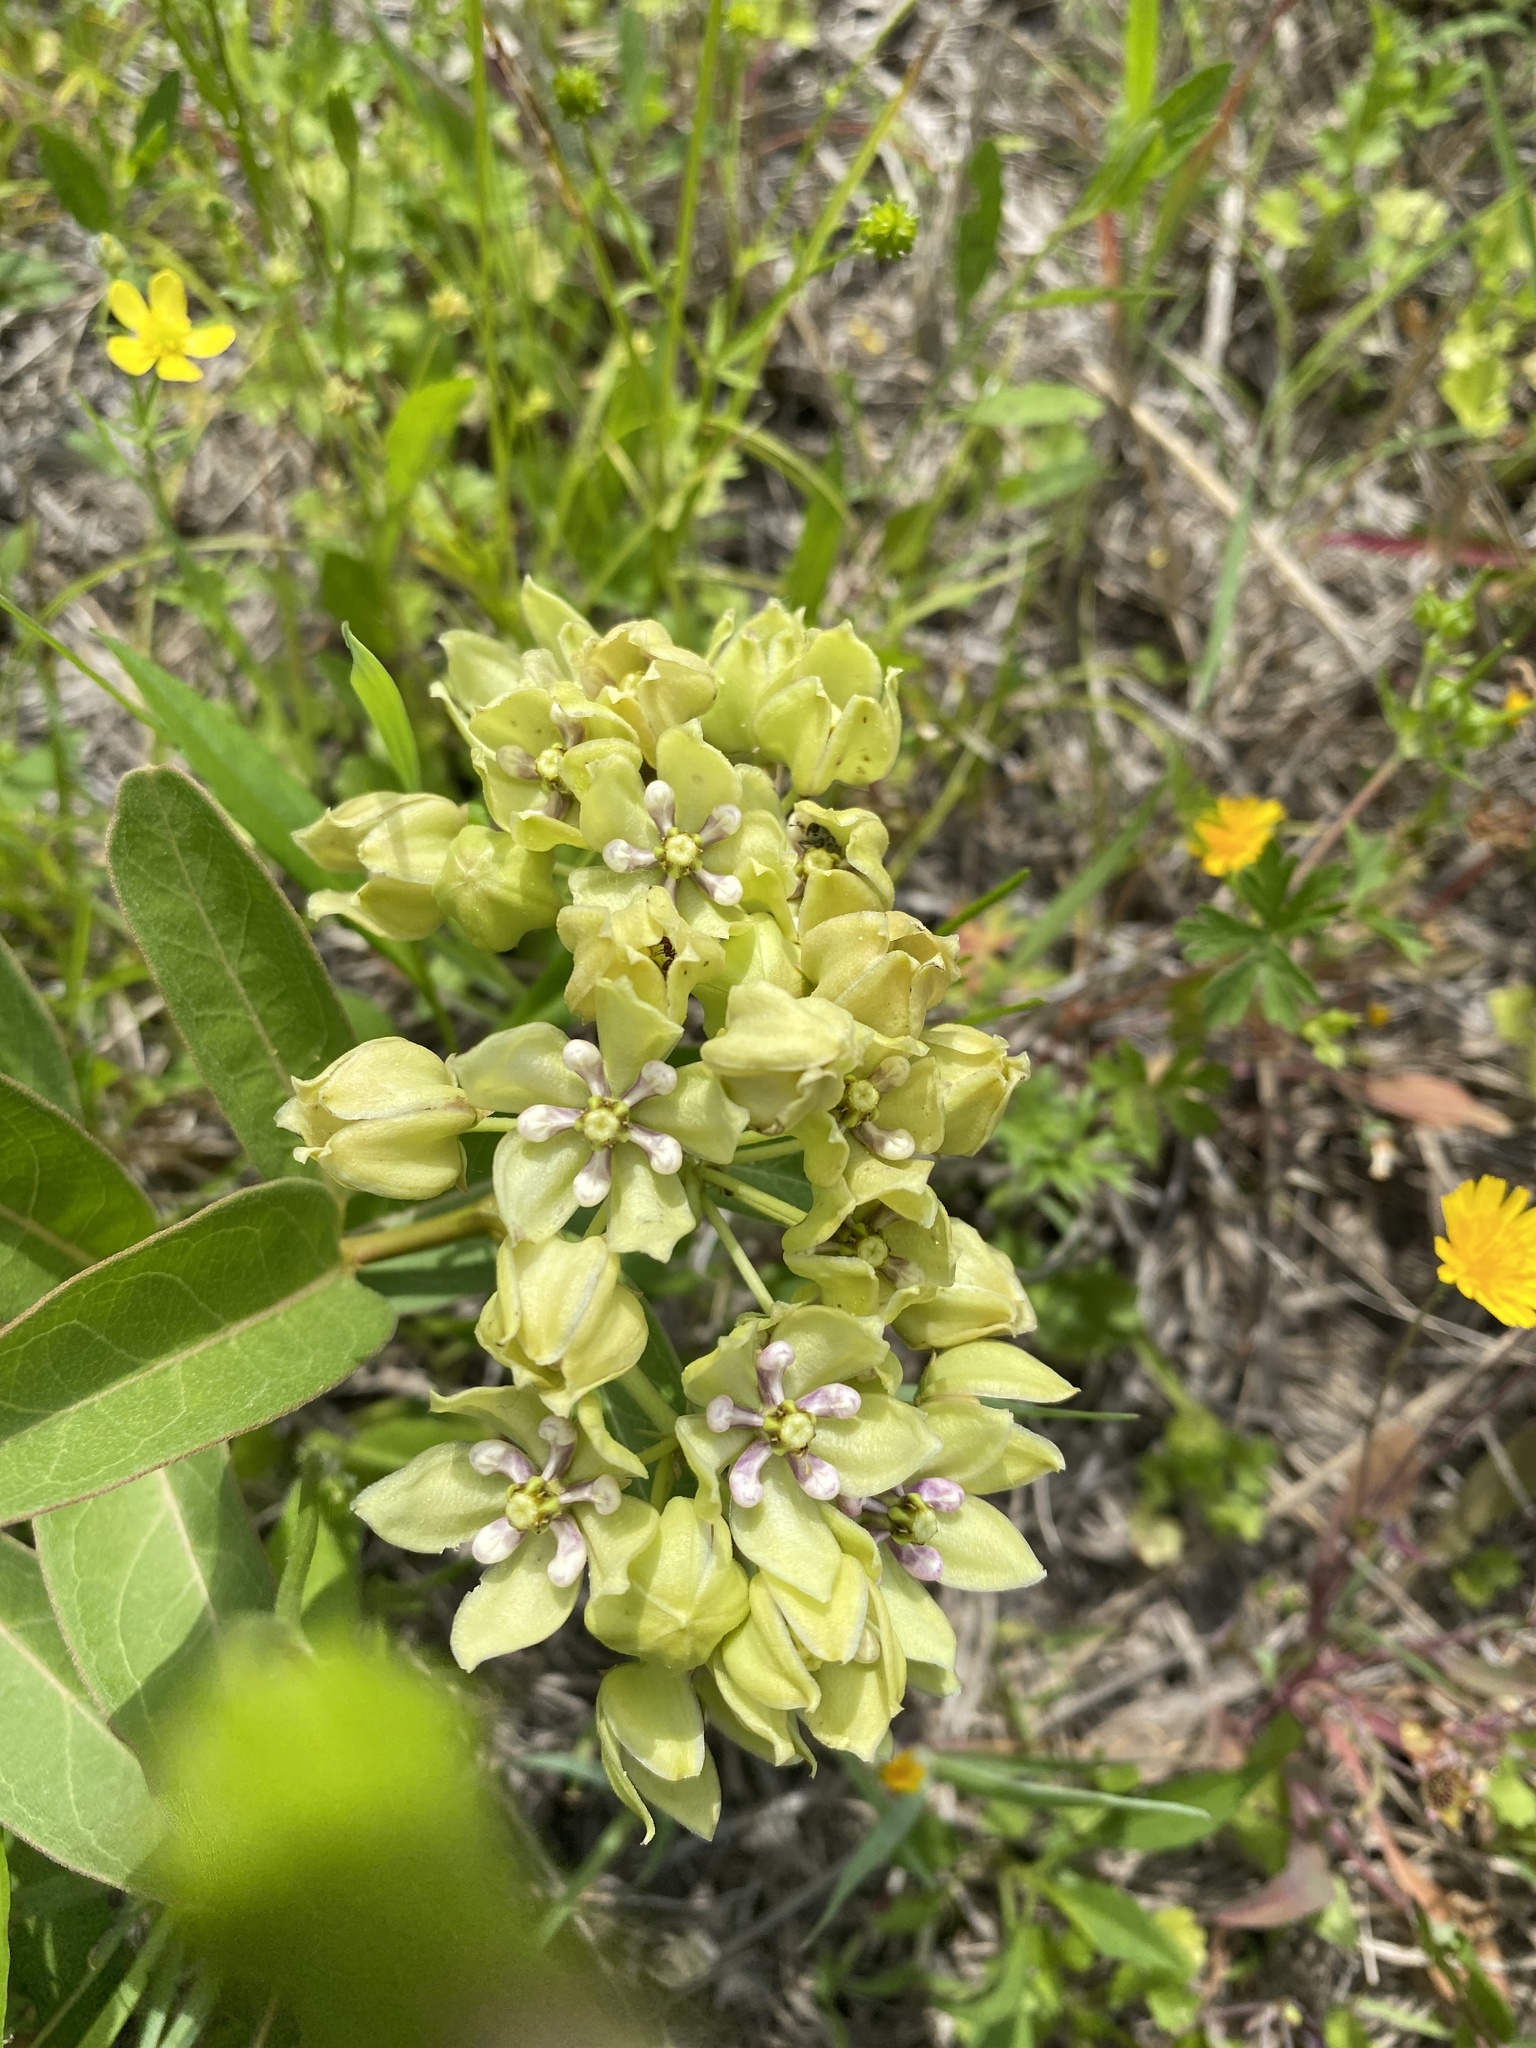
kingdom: Plantae
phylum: Tracheophyta
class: Magnoliopsida
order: Gentianales
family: Apocynaceae
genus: Asclepias
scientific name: Asclepias viridis
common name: Antelope-horns
